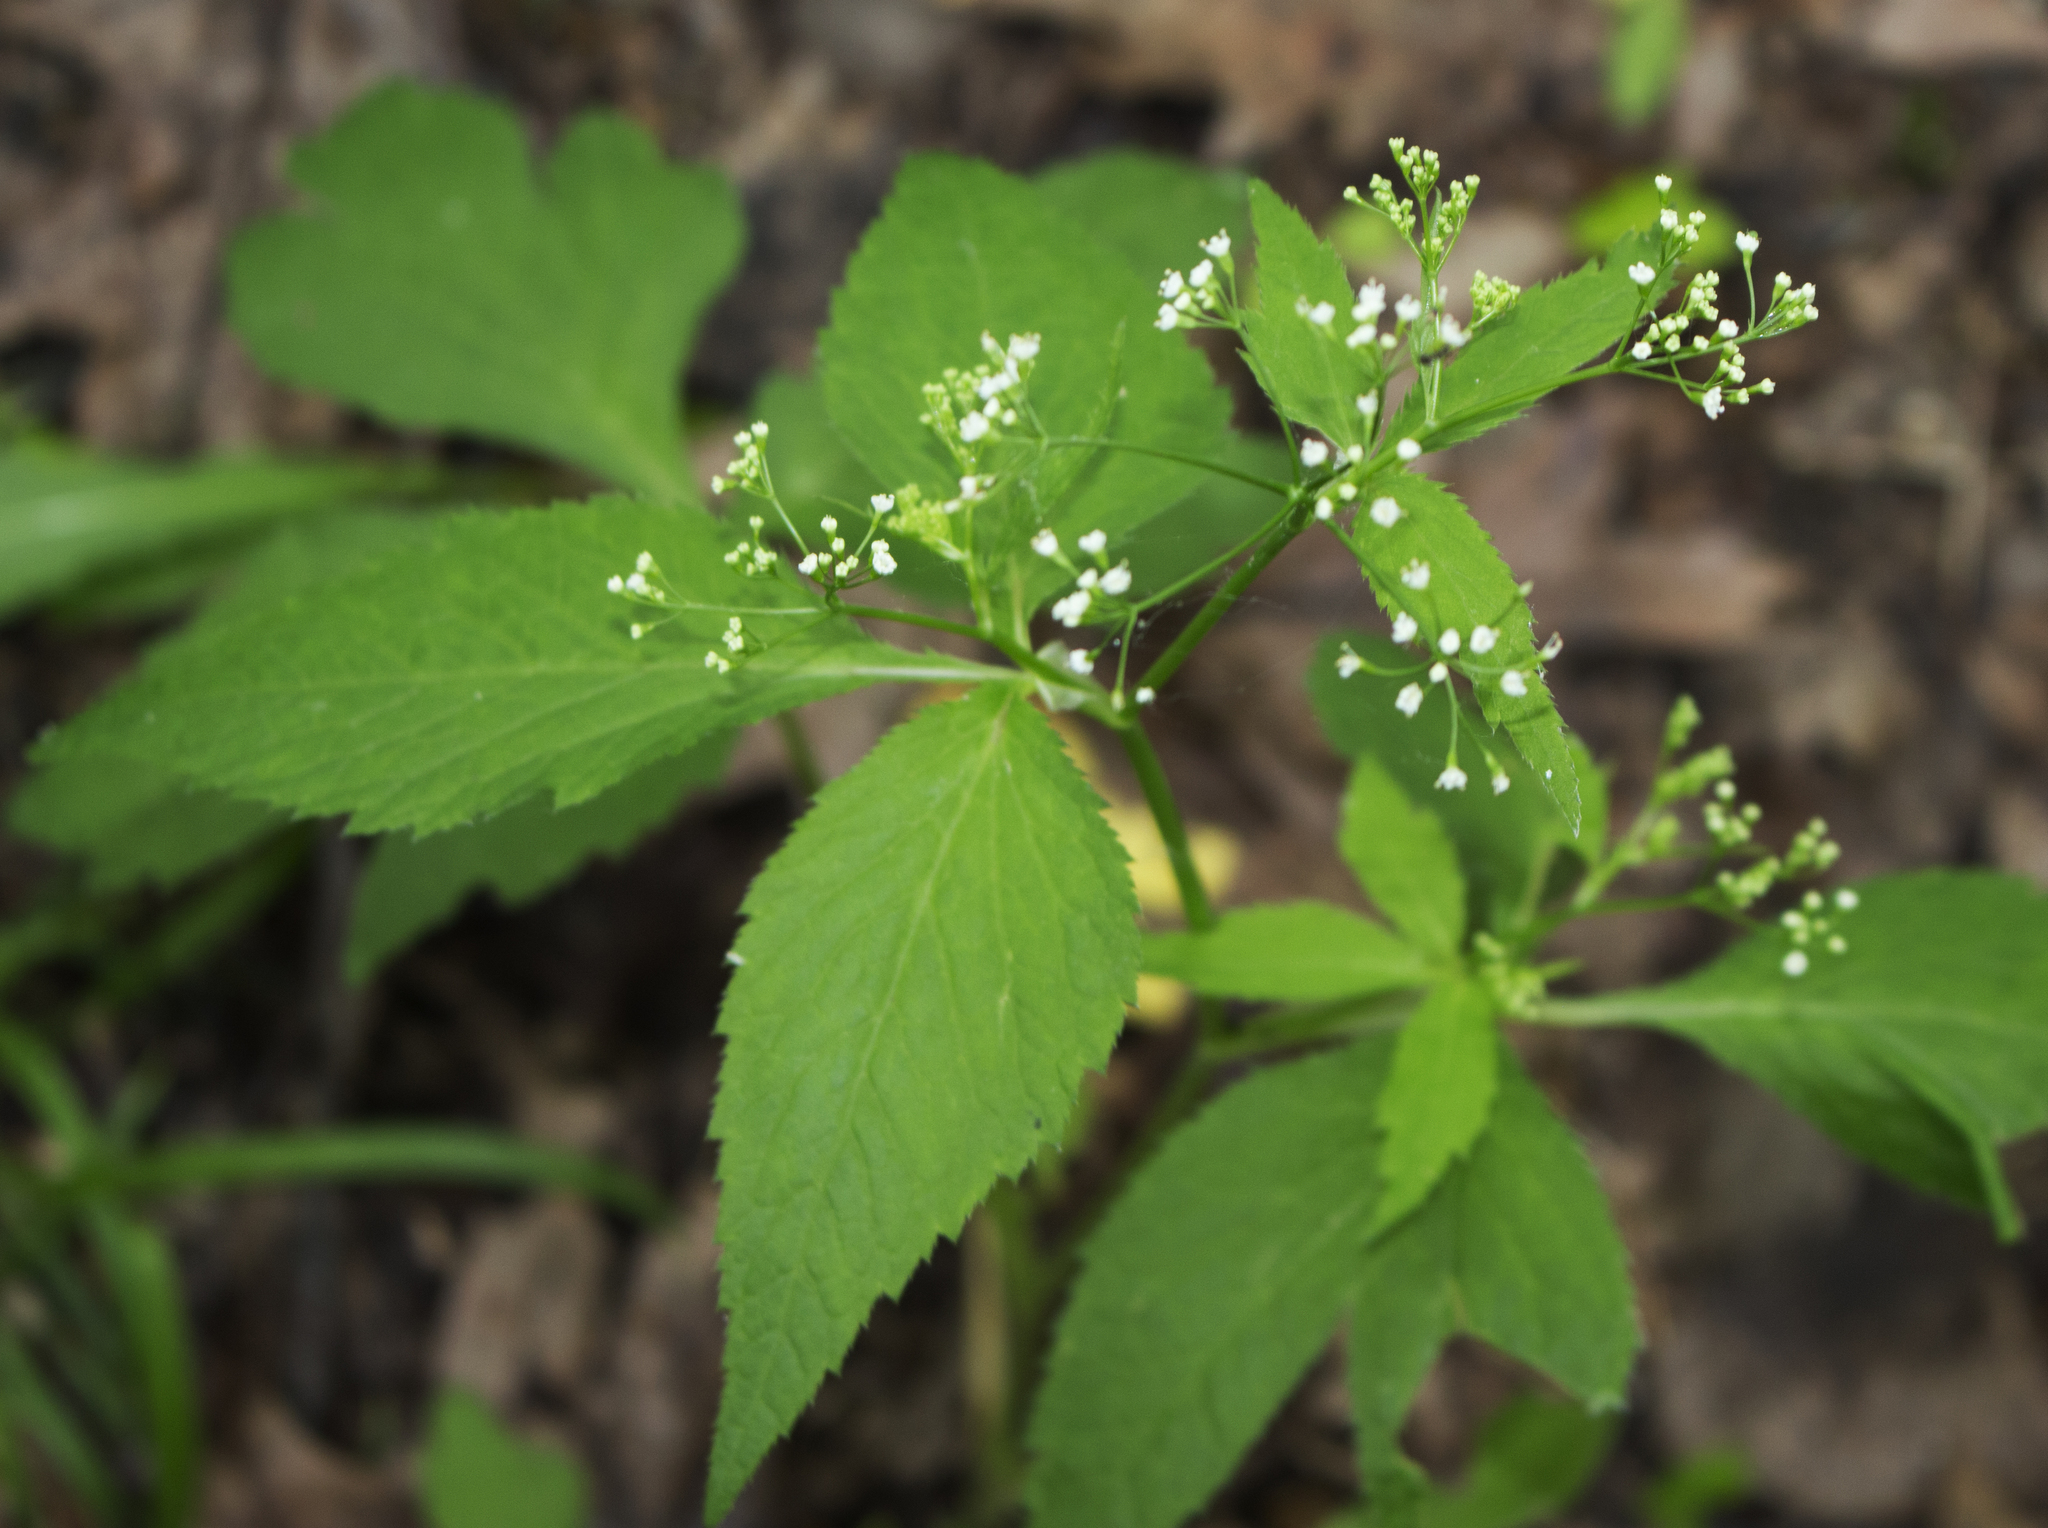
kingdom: Plantae
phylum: Tracheophyta
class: Magnoliopsida
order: Apiales
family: Apiaceae
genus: Cryptotaenia
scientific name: Cryptotaenia canadensis
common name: Honewort
